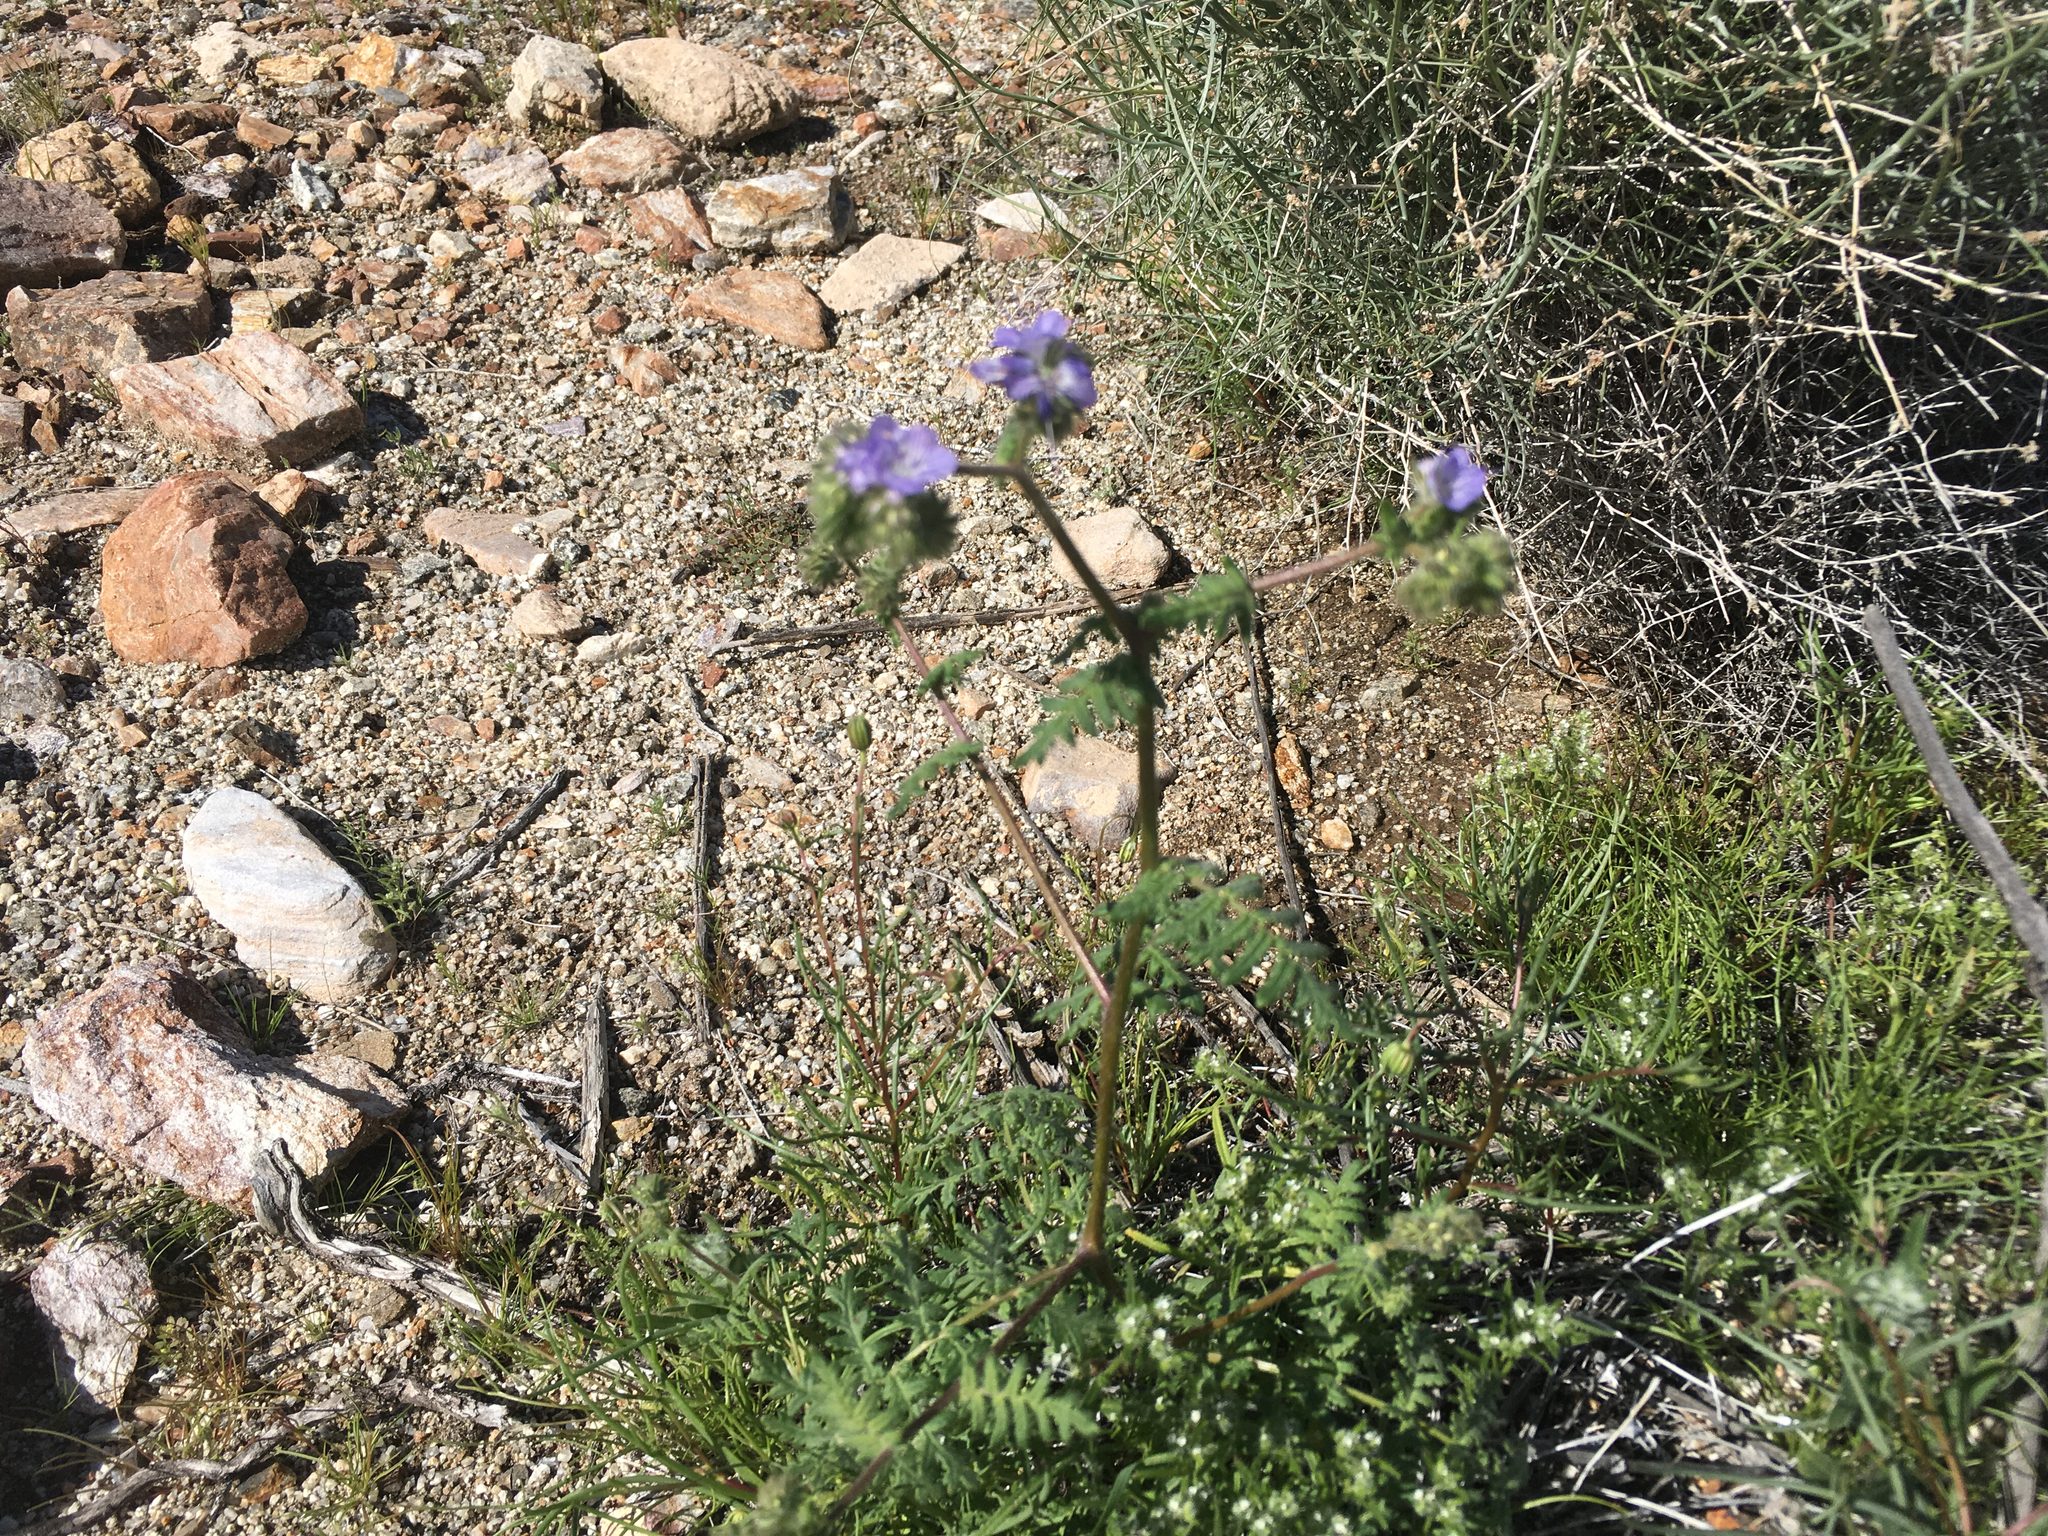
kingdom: Plantae
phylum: Tracheophyta
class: Magnoliopsida
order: Boraginales
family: Hydrophyllaceae
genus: Phacelia
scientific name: Phacelia distans
